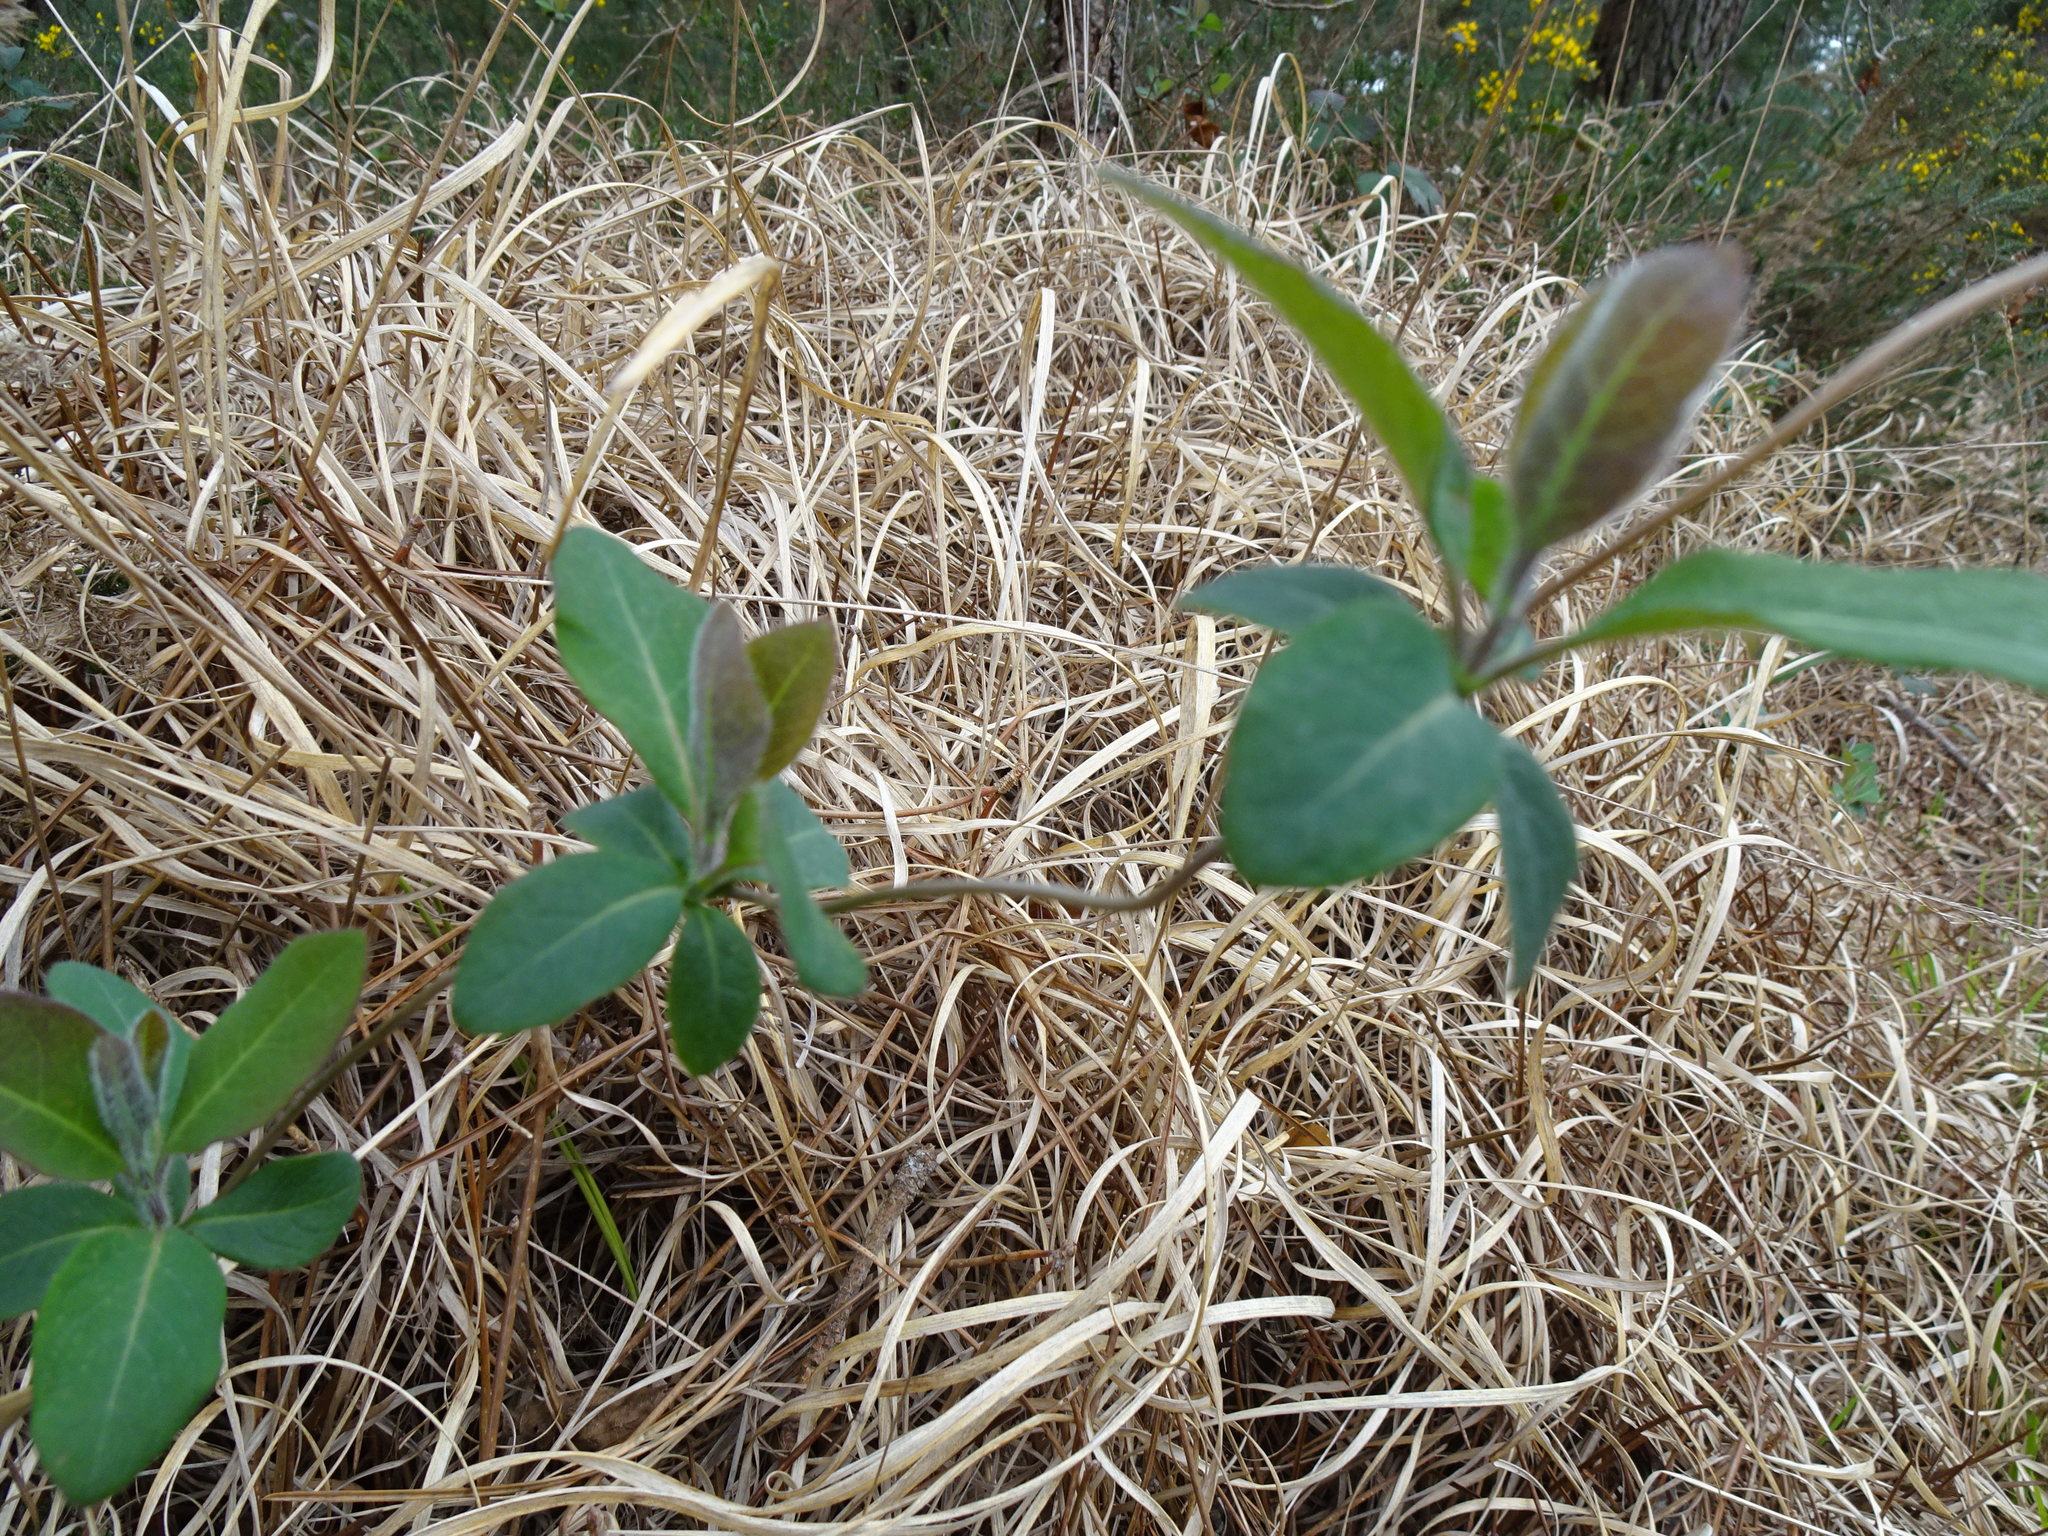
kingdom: Plantae
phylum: Tracheophyta
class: Magnoliopsida
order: Dipsacales
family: Caprifoliaceae
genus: Lonicera
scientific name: Lonicera periclymenum
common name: European honeysuckle
